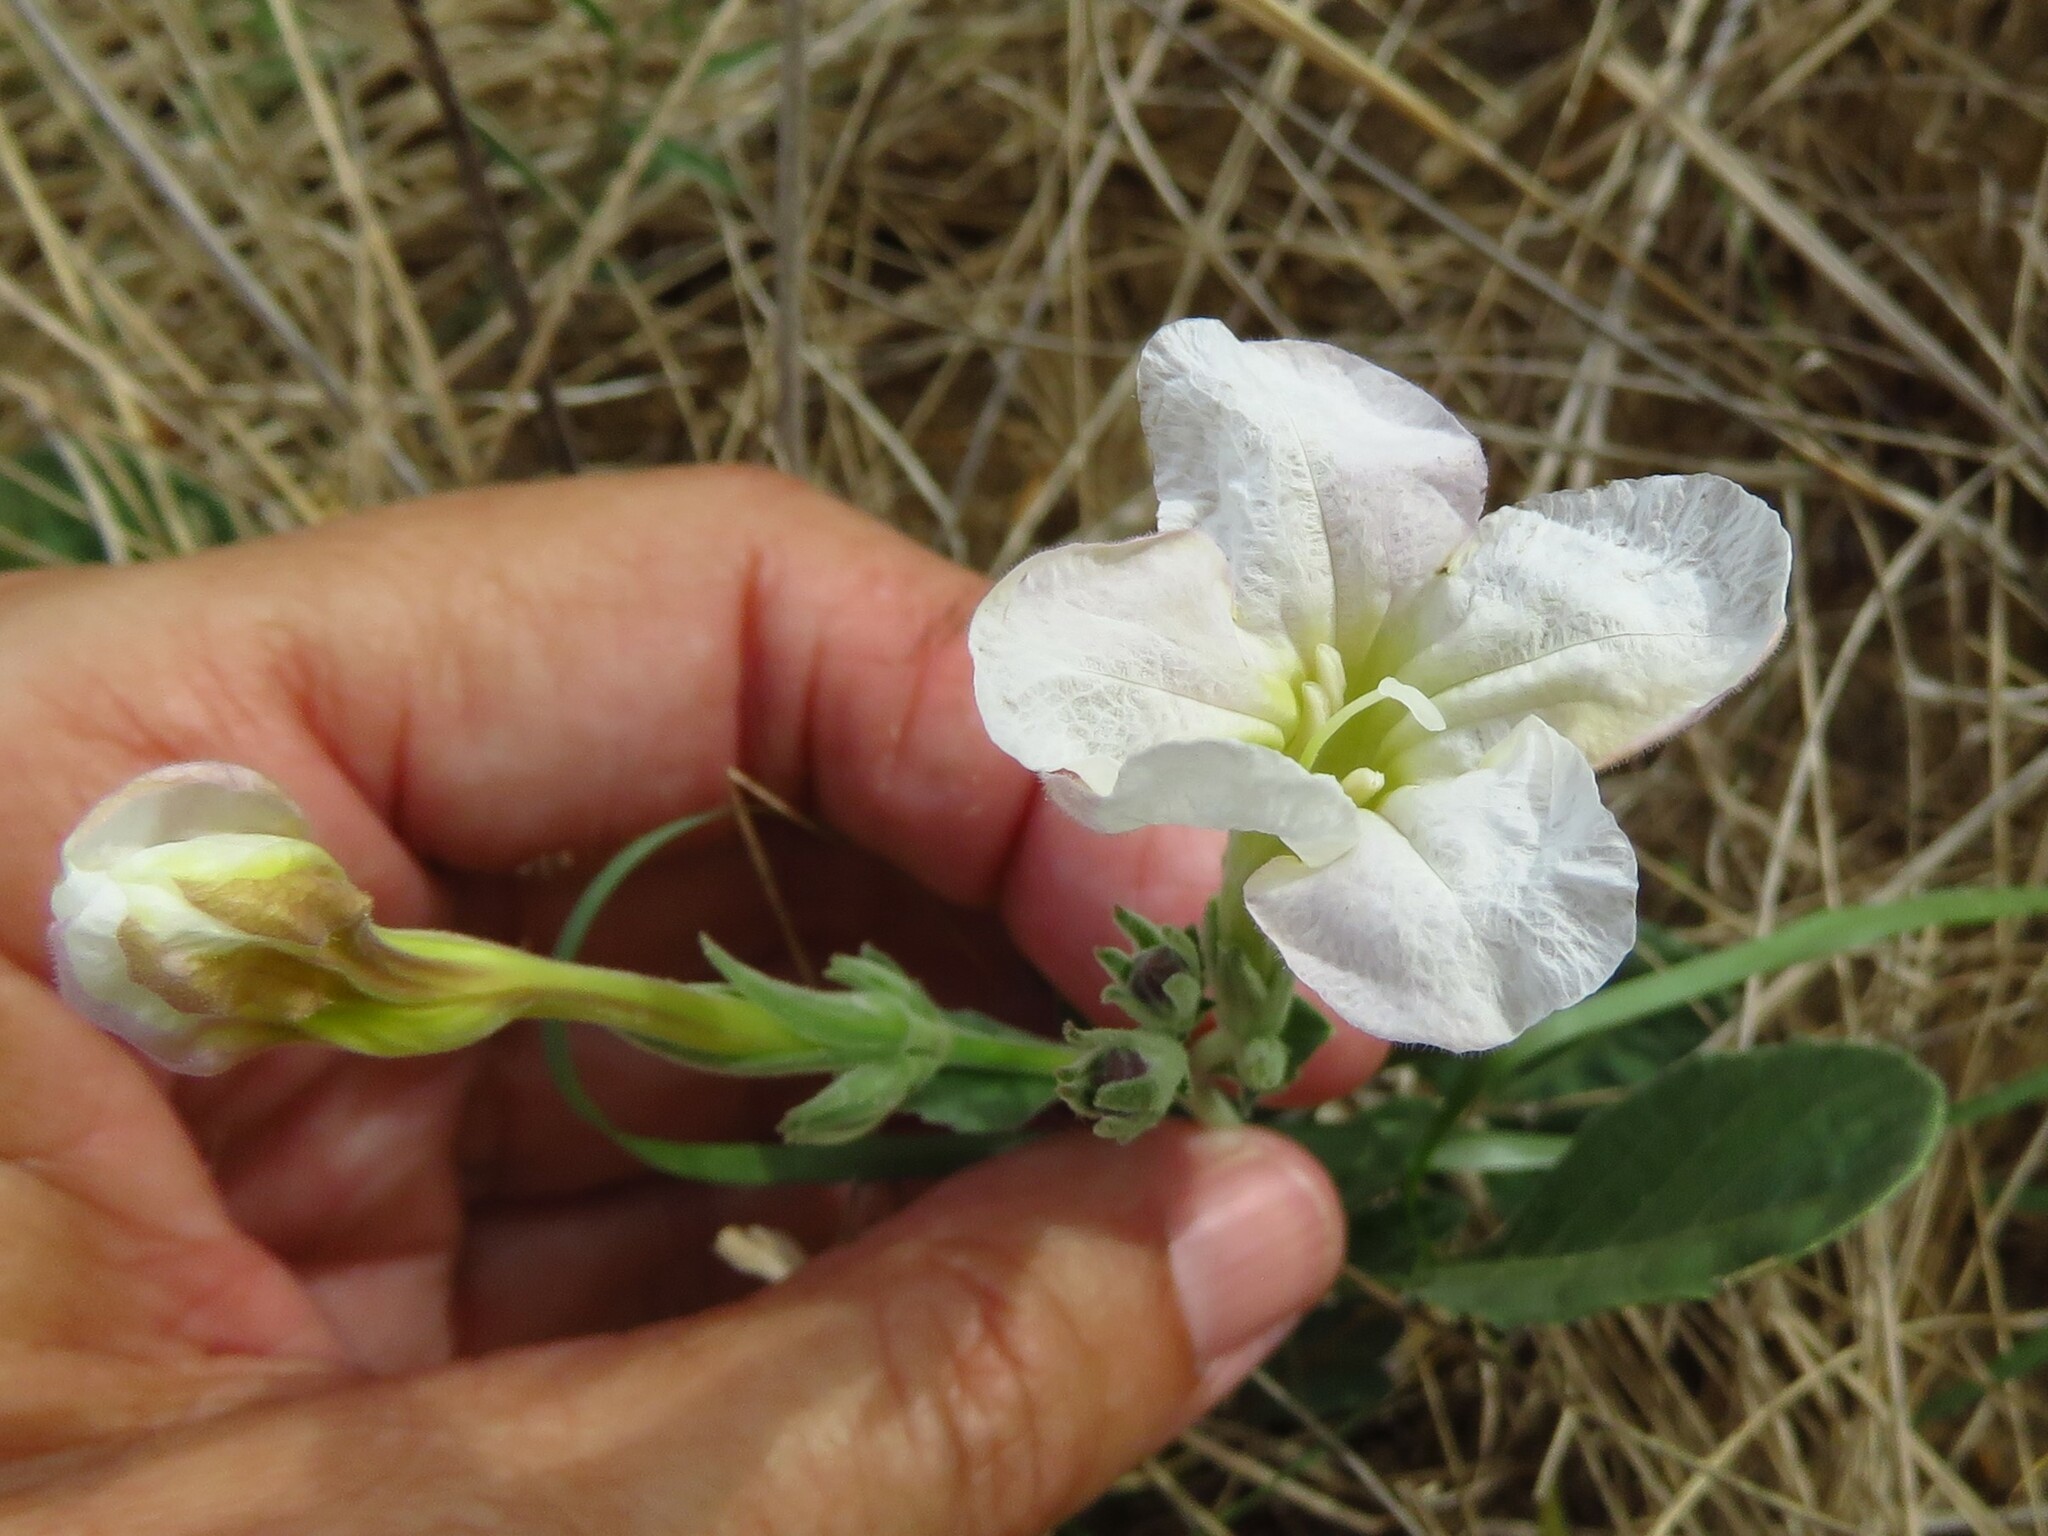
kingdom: Plantae
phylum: Tracheophyta
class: Magnoliopsida
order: Lamiales
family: Acanthaceae
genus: Ruellia
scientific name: Ruellia metziae
